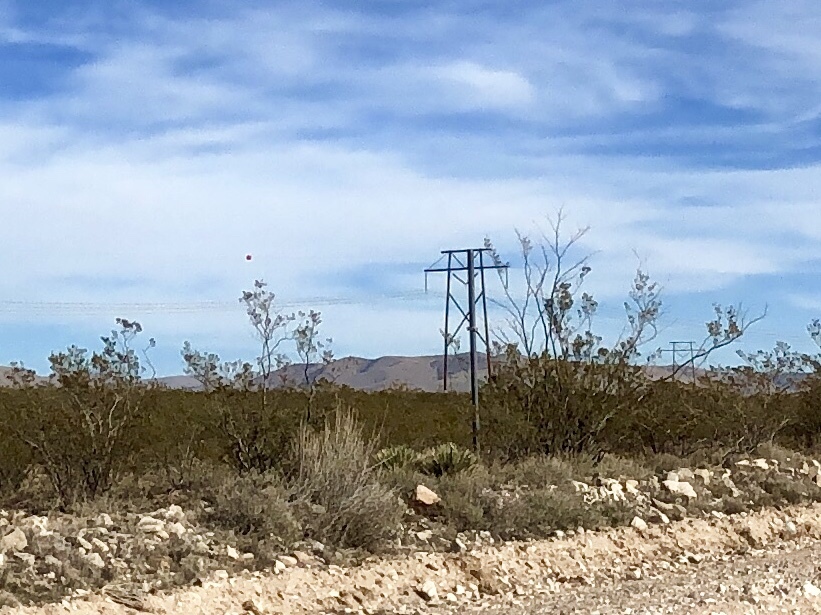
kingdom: Plantae
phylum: Tracheophyta
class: Magnoliopsida
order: Zygophyllales
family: Zygophyllaceae
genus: Larrea
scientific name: Larrea tridentata
